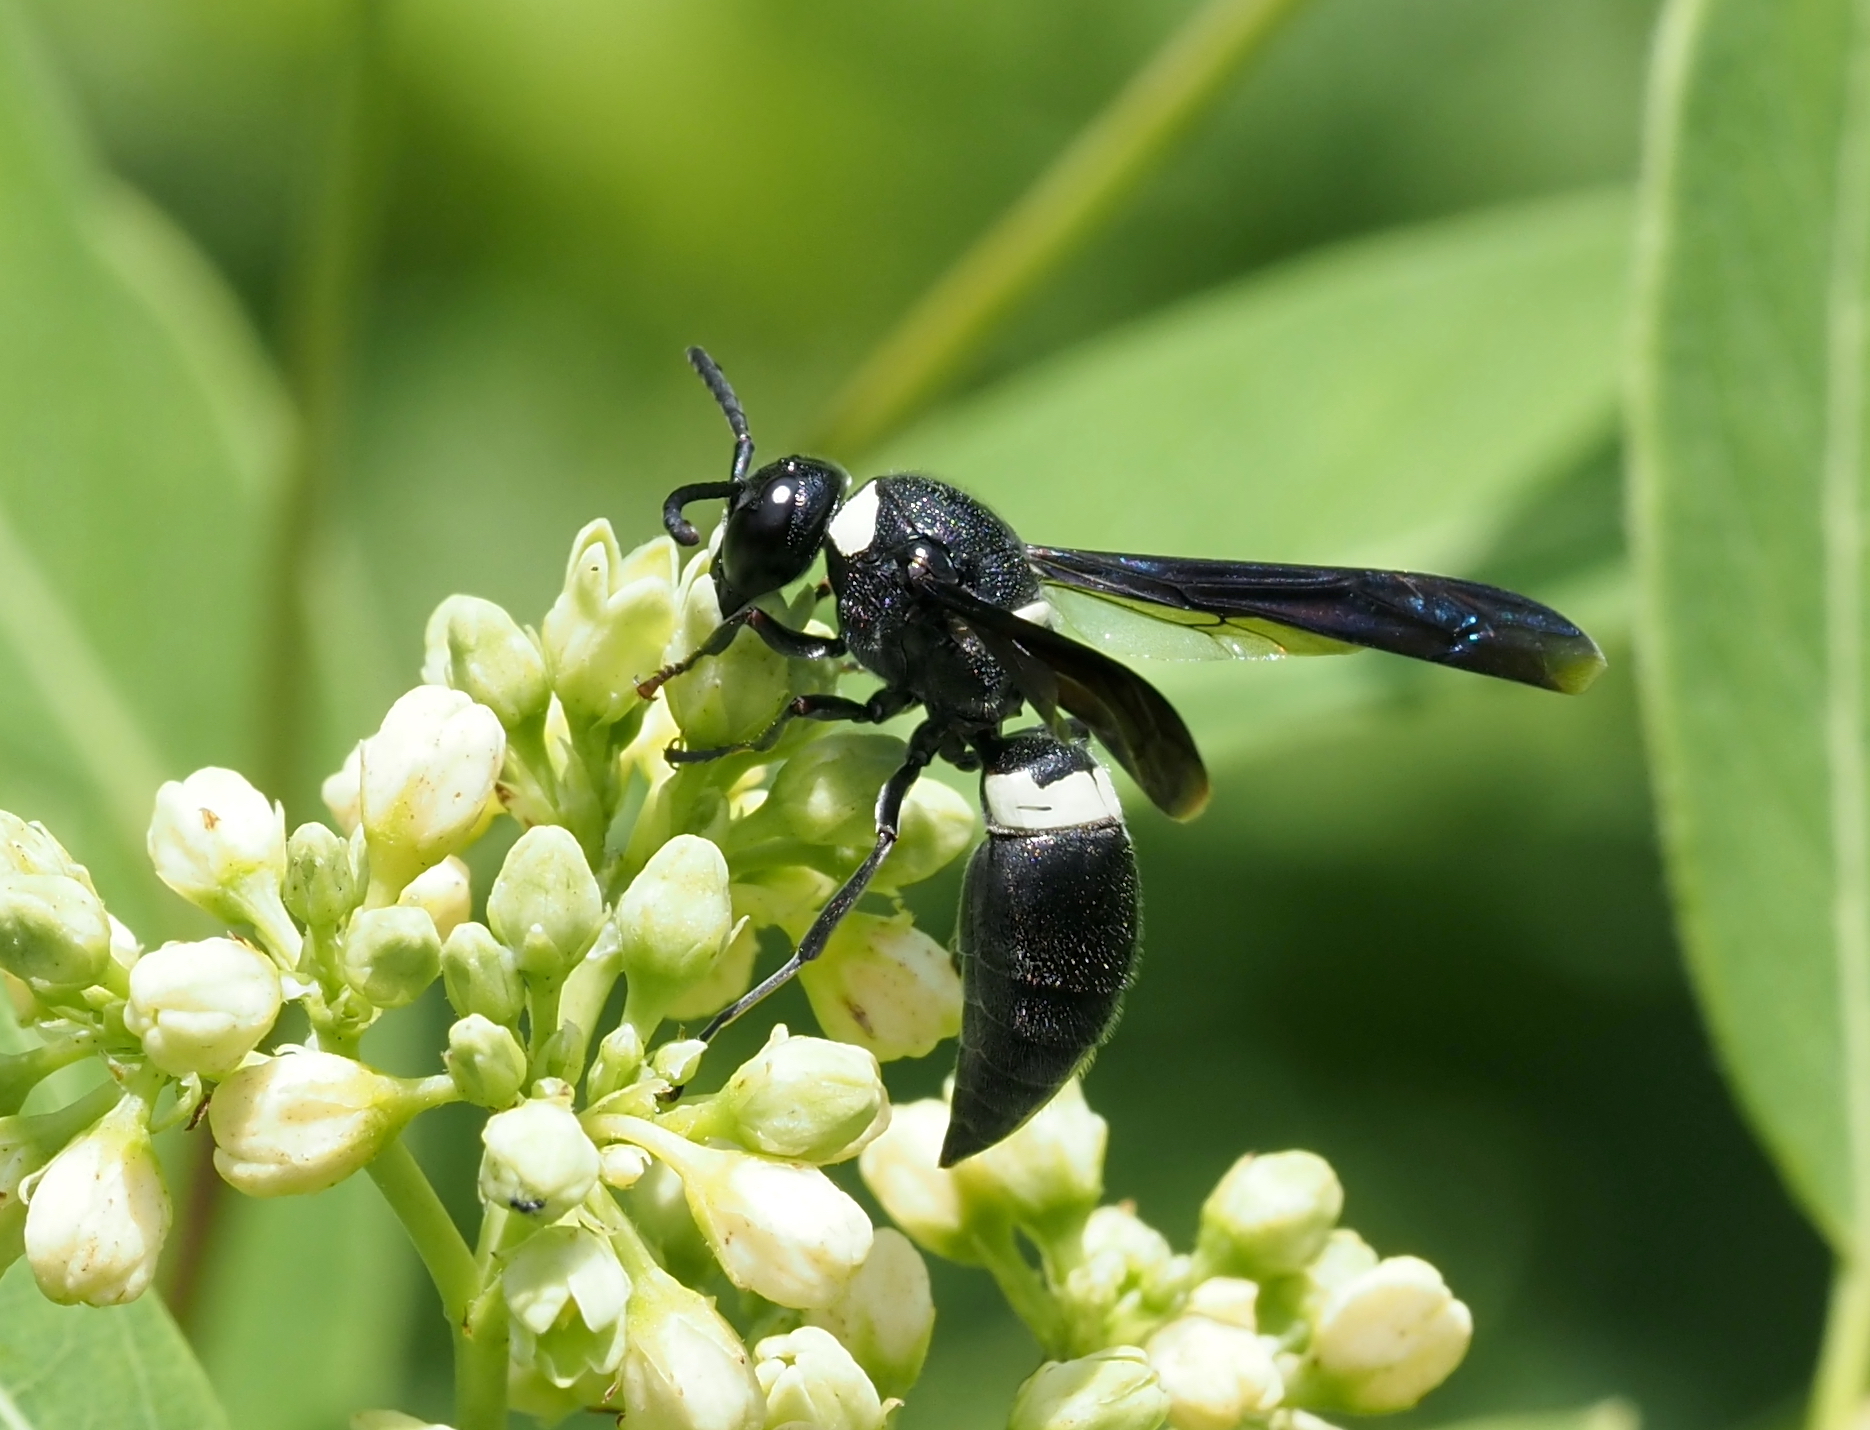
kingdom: Animalia
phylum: Arthropoda
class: Insecta
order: Hymenoptera
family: Eumenidae
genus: Monobia
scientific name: Monobia quadridens
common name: Four-toothed mason wasp
